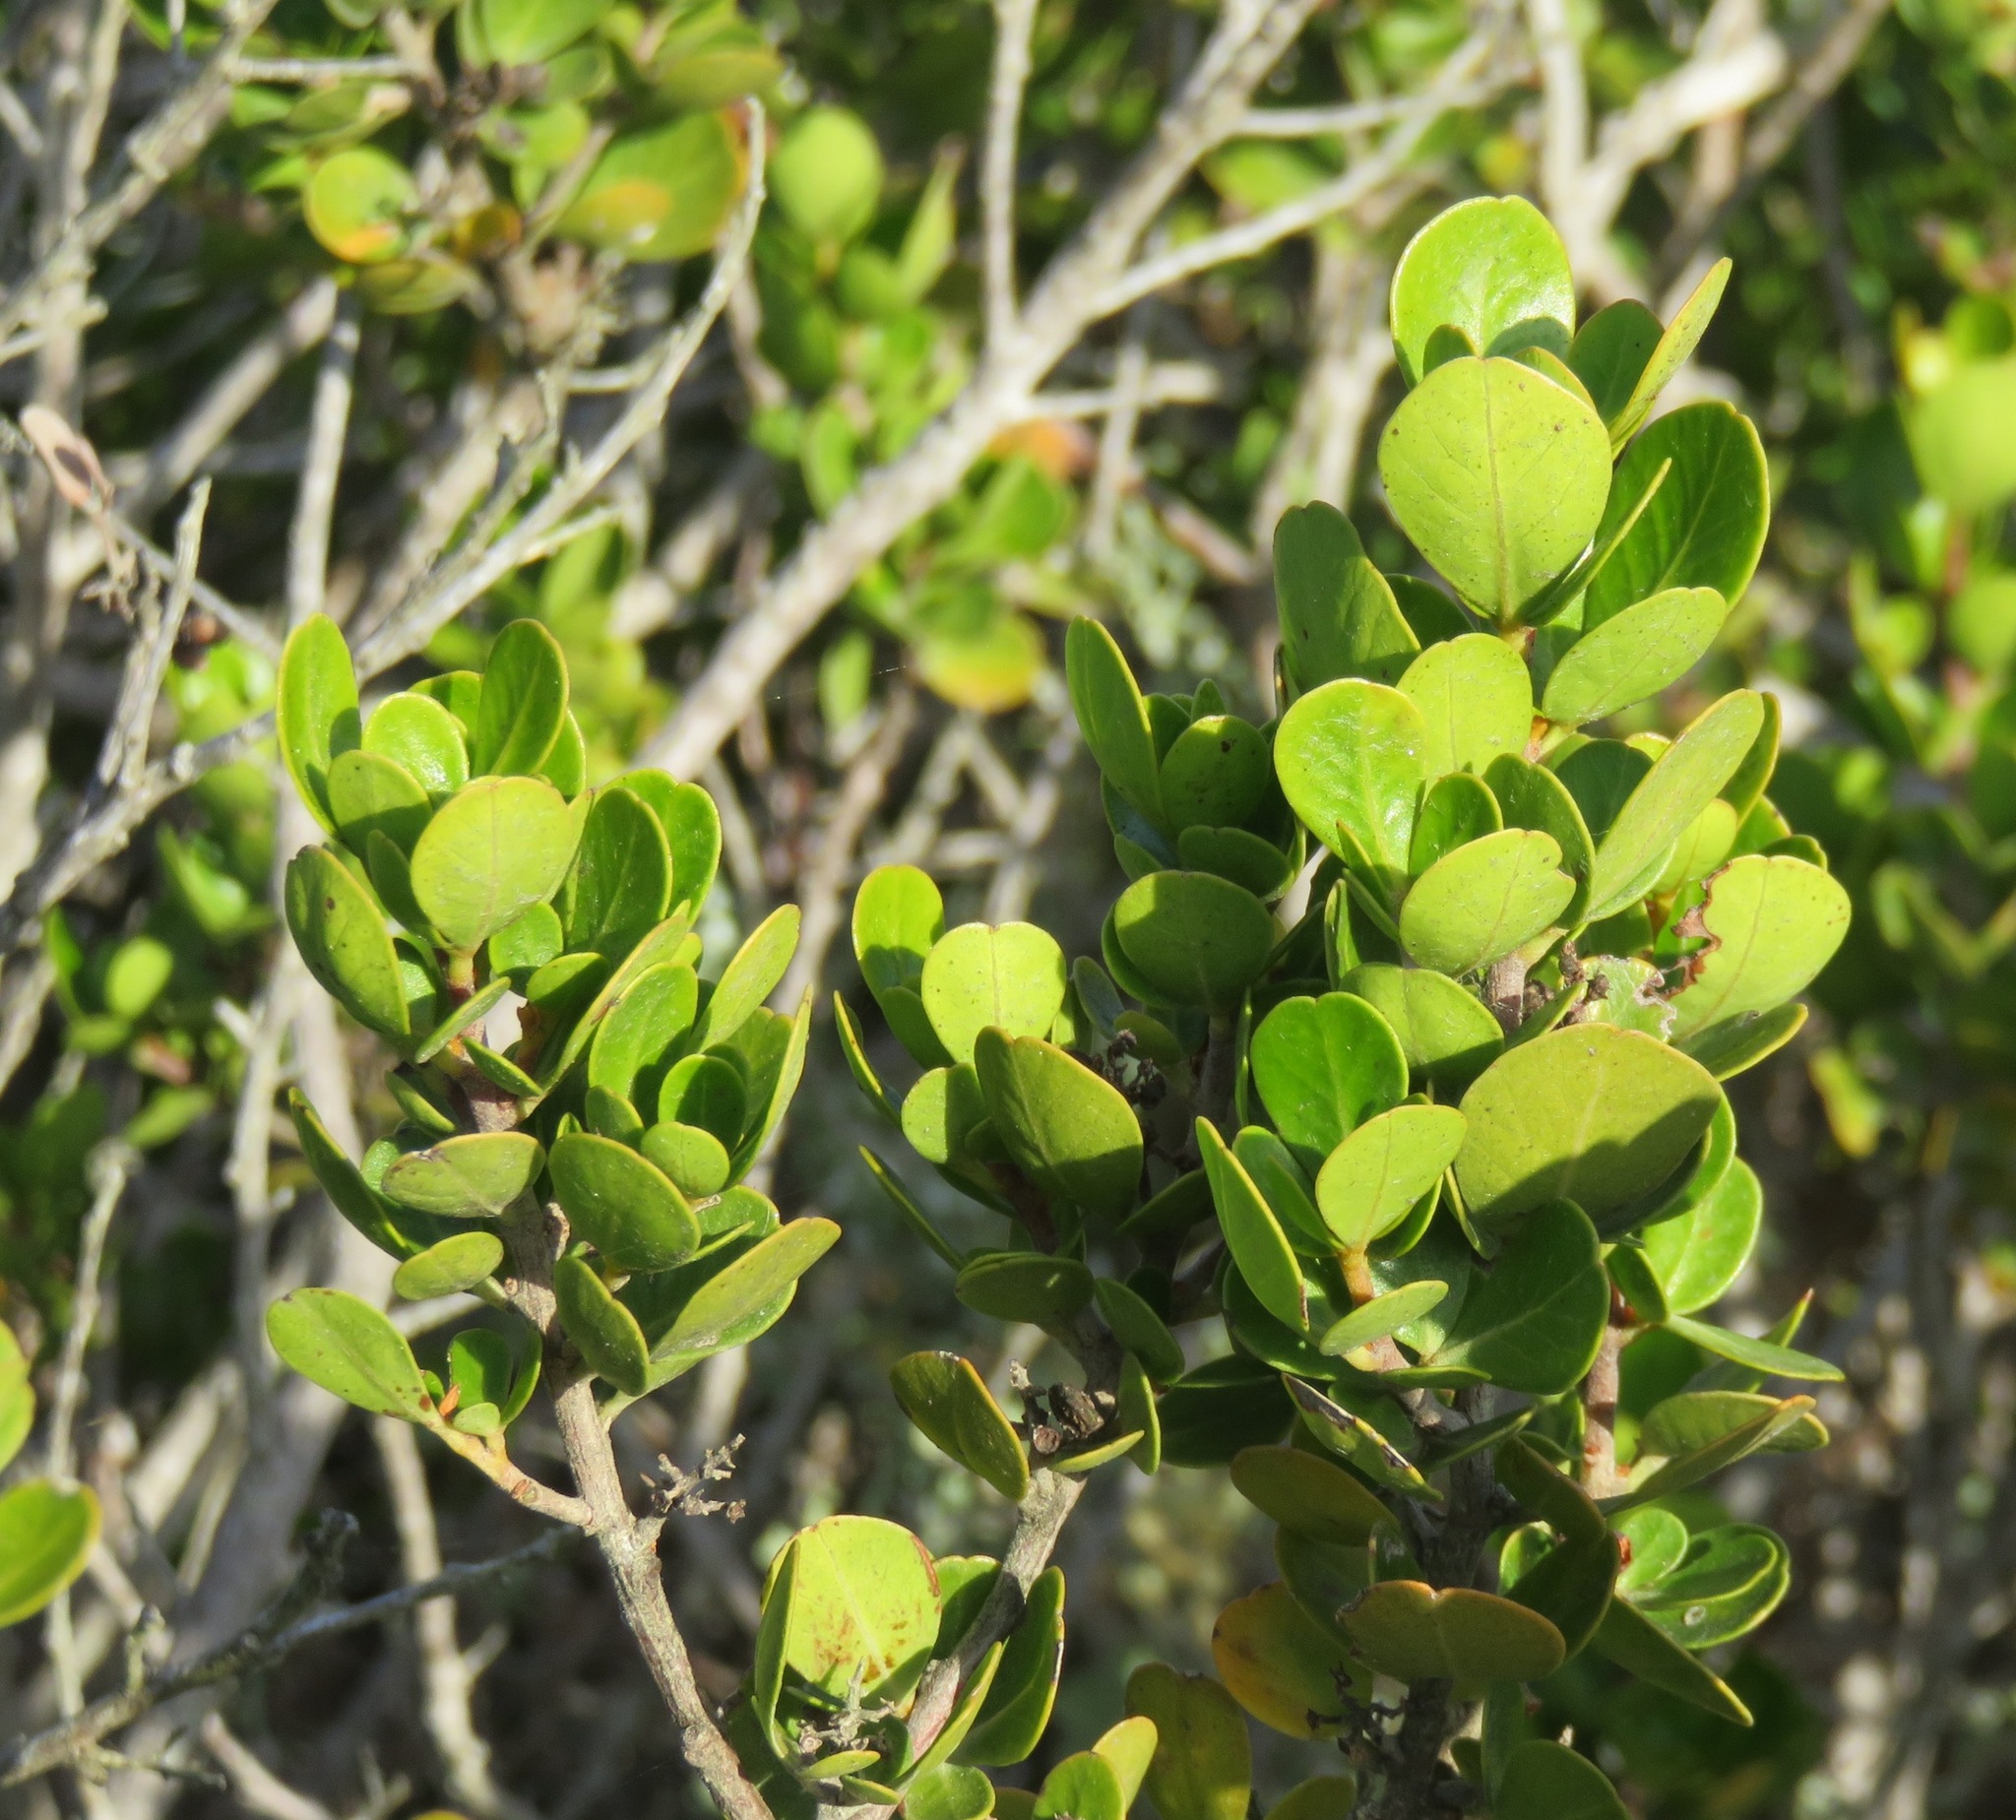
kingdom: Plantae
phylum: Tracheophyta
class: Magnoliopsida
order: Sapindales
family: Anacardiaceae
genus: Searsia
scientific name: Searsia lucida
